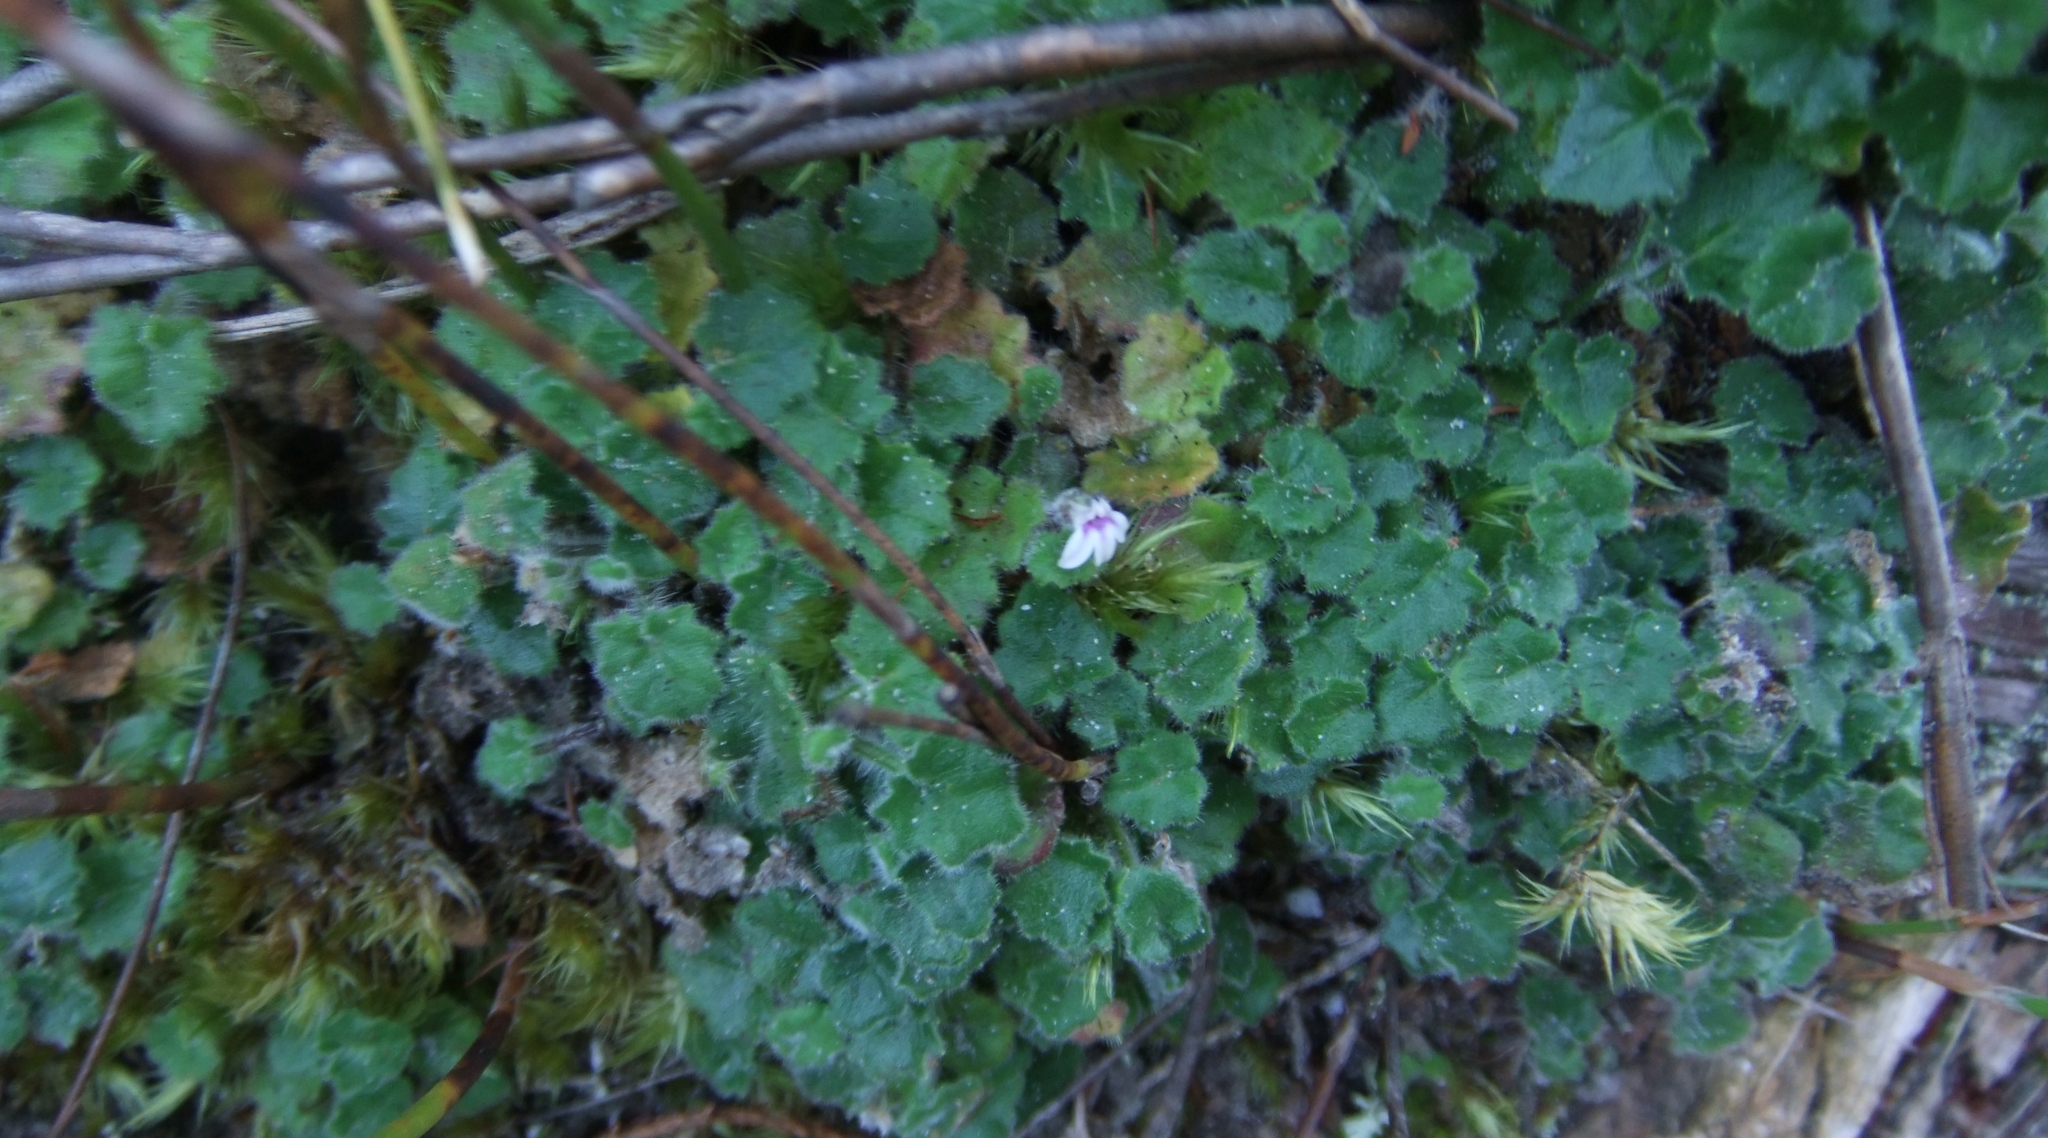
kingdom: Plantae
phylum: Tracheophyta
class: Magnoliopsida
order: Asterales
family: Campanulaceae
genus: Lobelia
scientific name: Lobelia ardisiandroides
